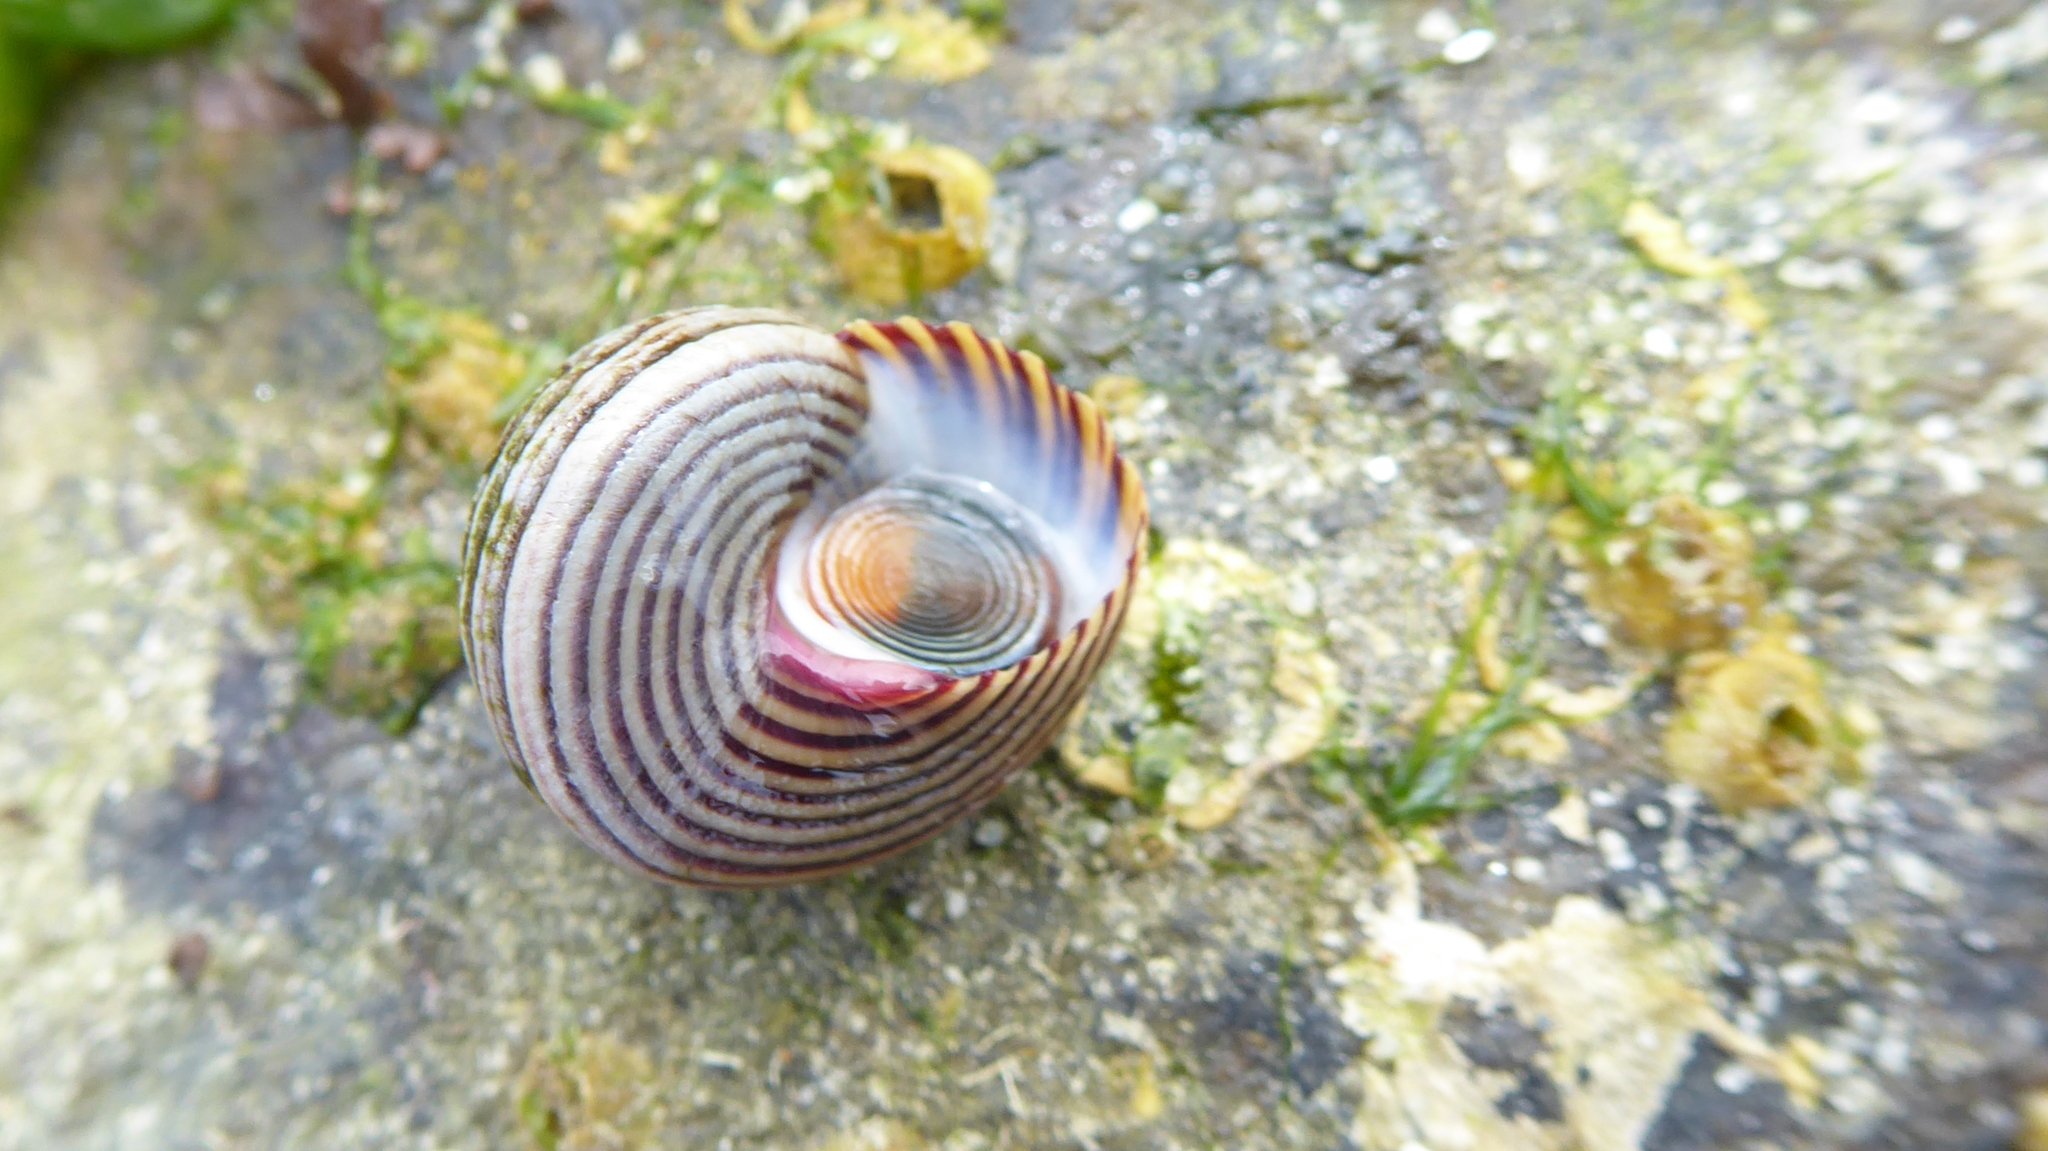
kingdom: Animalia
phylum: Mollusca
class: Gastropoda
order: Trochida
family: Calliostomatidae
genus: Calliostoma
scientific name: Calliostoma ligatum
